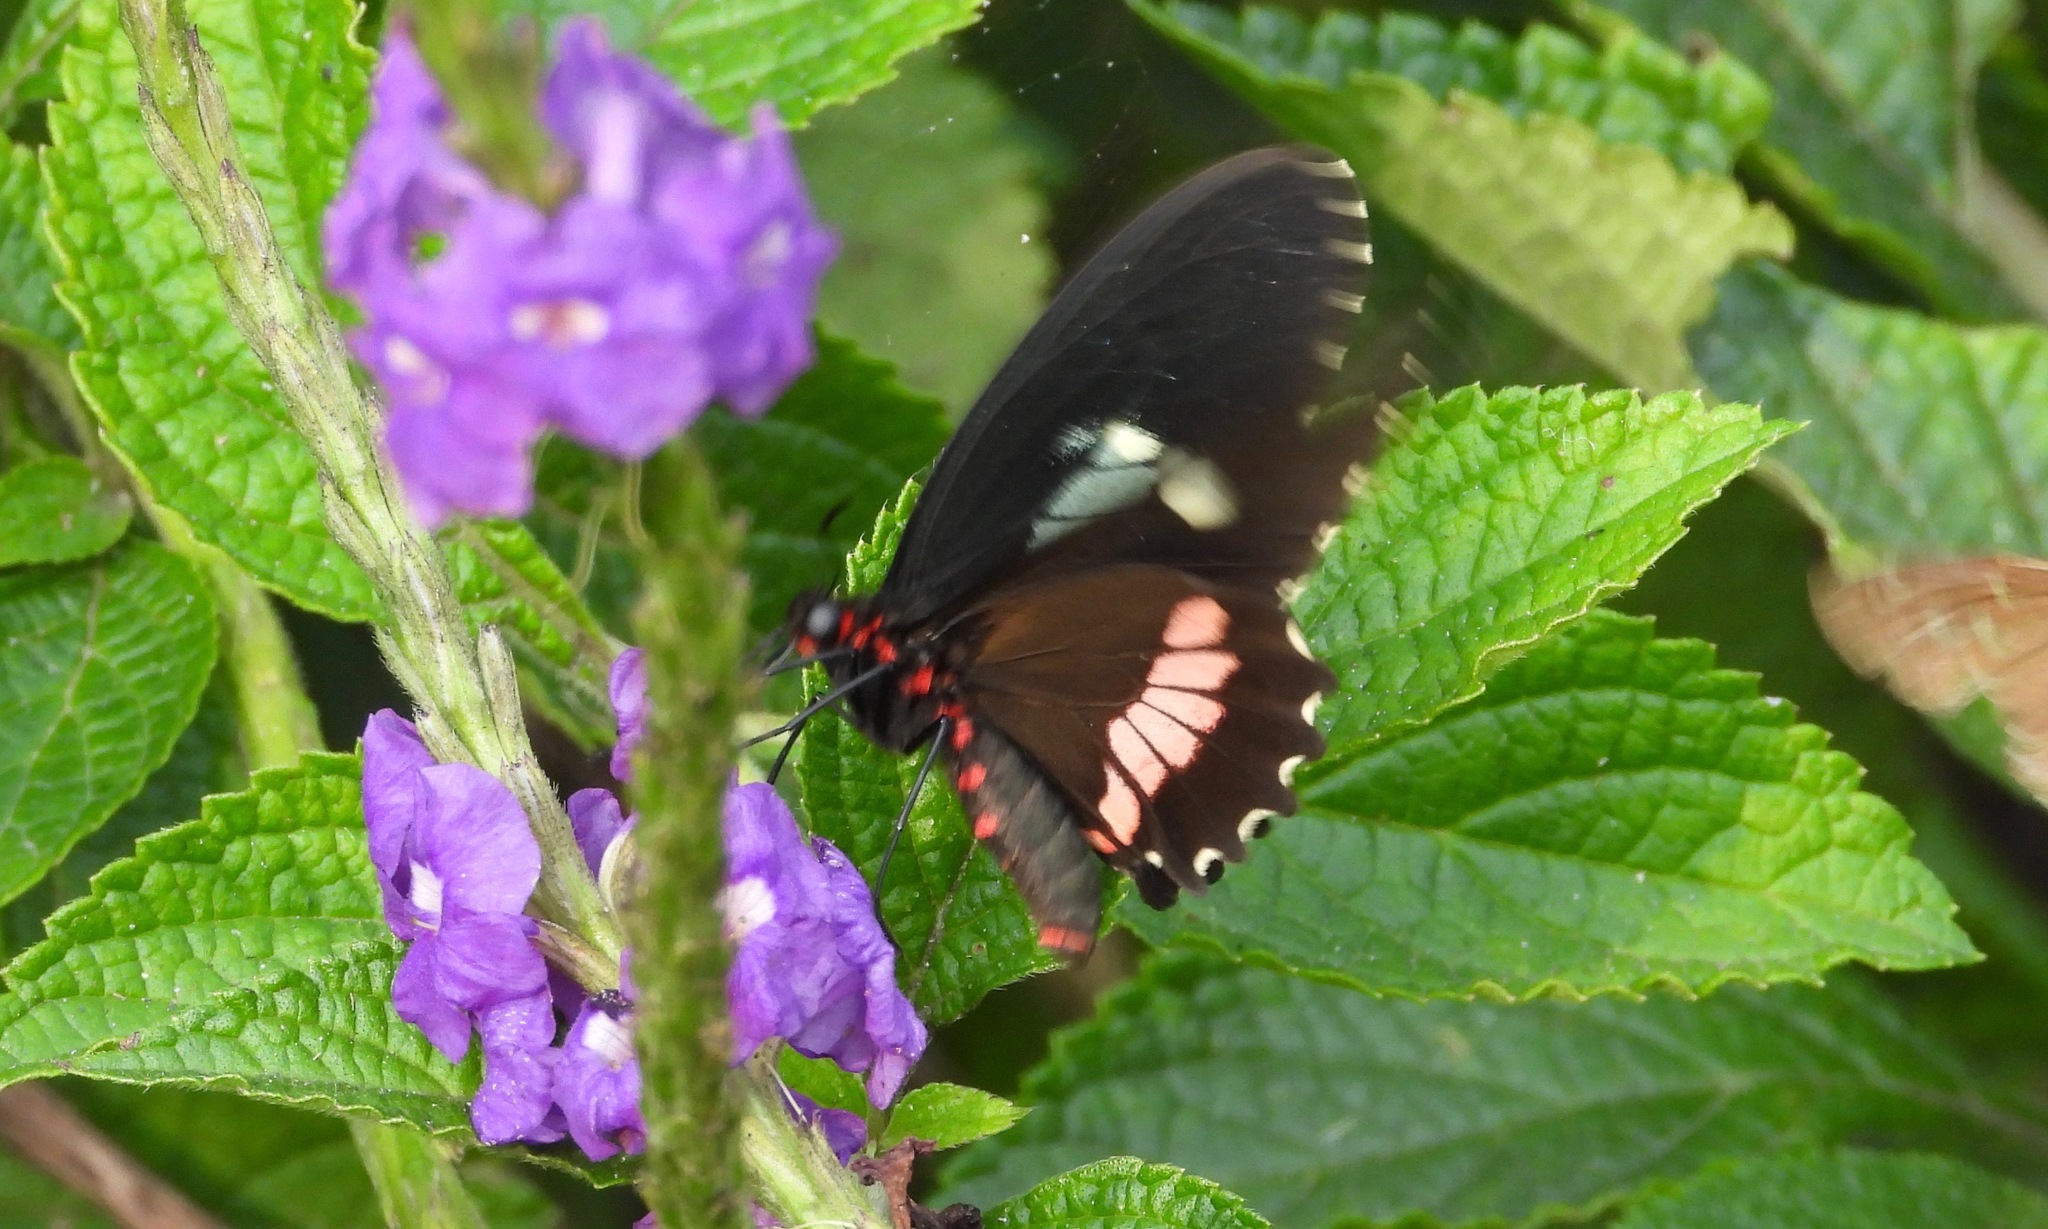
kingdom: Animalia
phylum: Arthropoda
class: Insecta
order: Lepidoptera
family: Papilionidae
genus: Parides
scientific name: Parides erithalion
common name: Variable cattleheart
